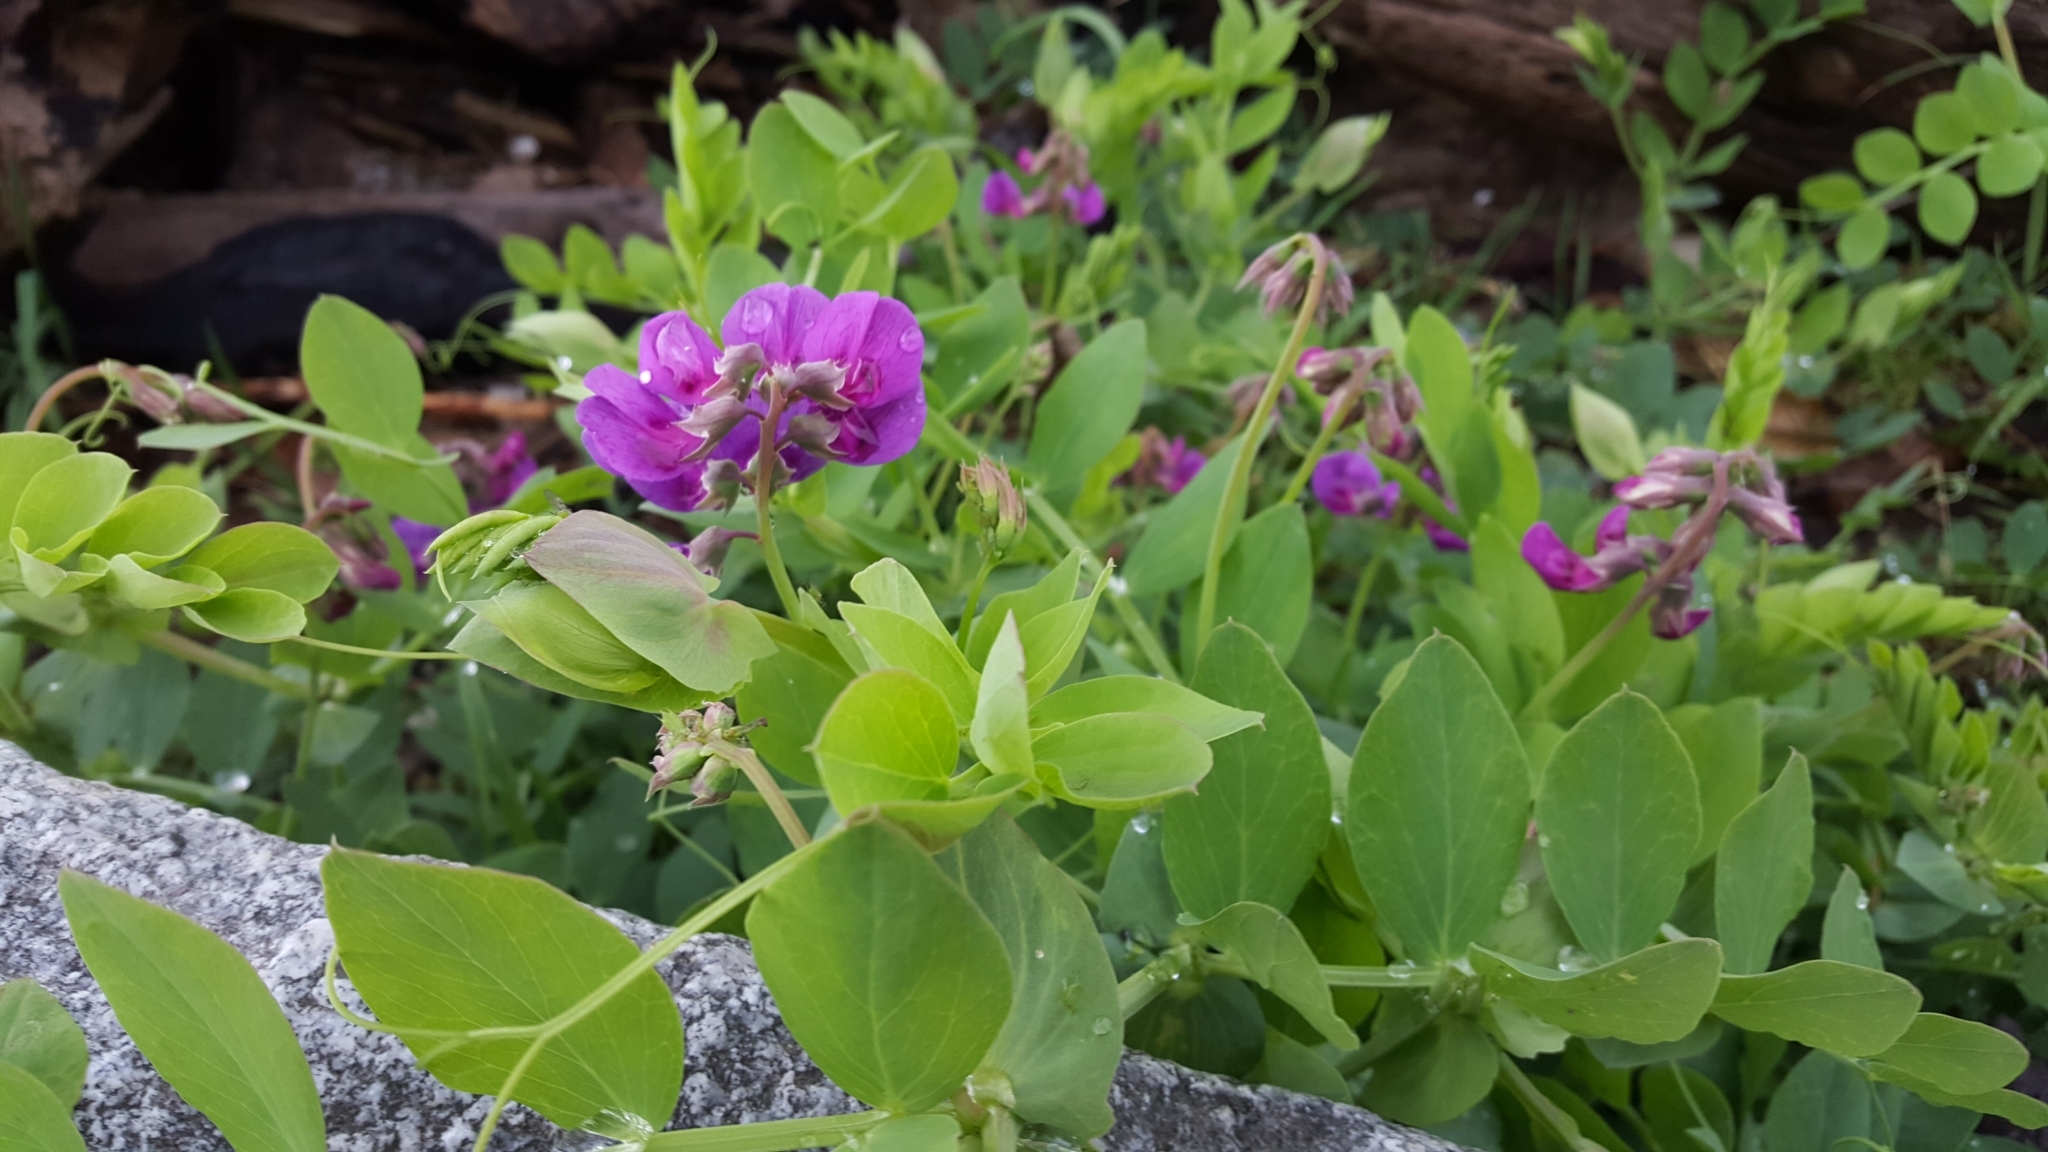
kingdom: Plantae
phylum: Tracheophyta
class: Magnoliopsida
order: Fabales
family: Fabaceae
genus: Lathyrus
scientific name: Lathyrus japonicus
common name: Sea pea
